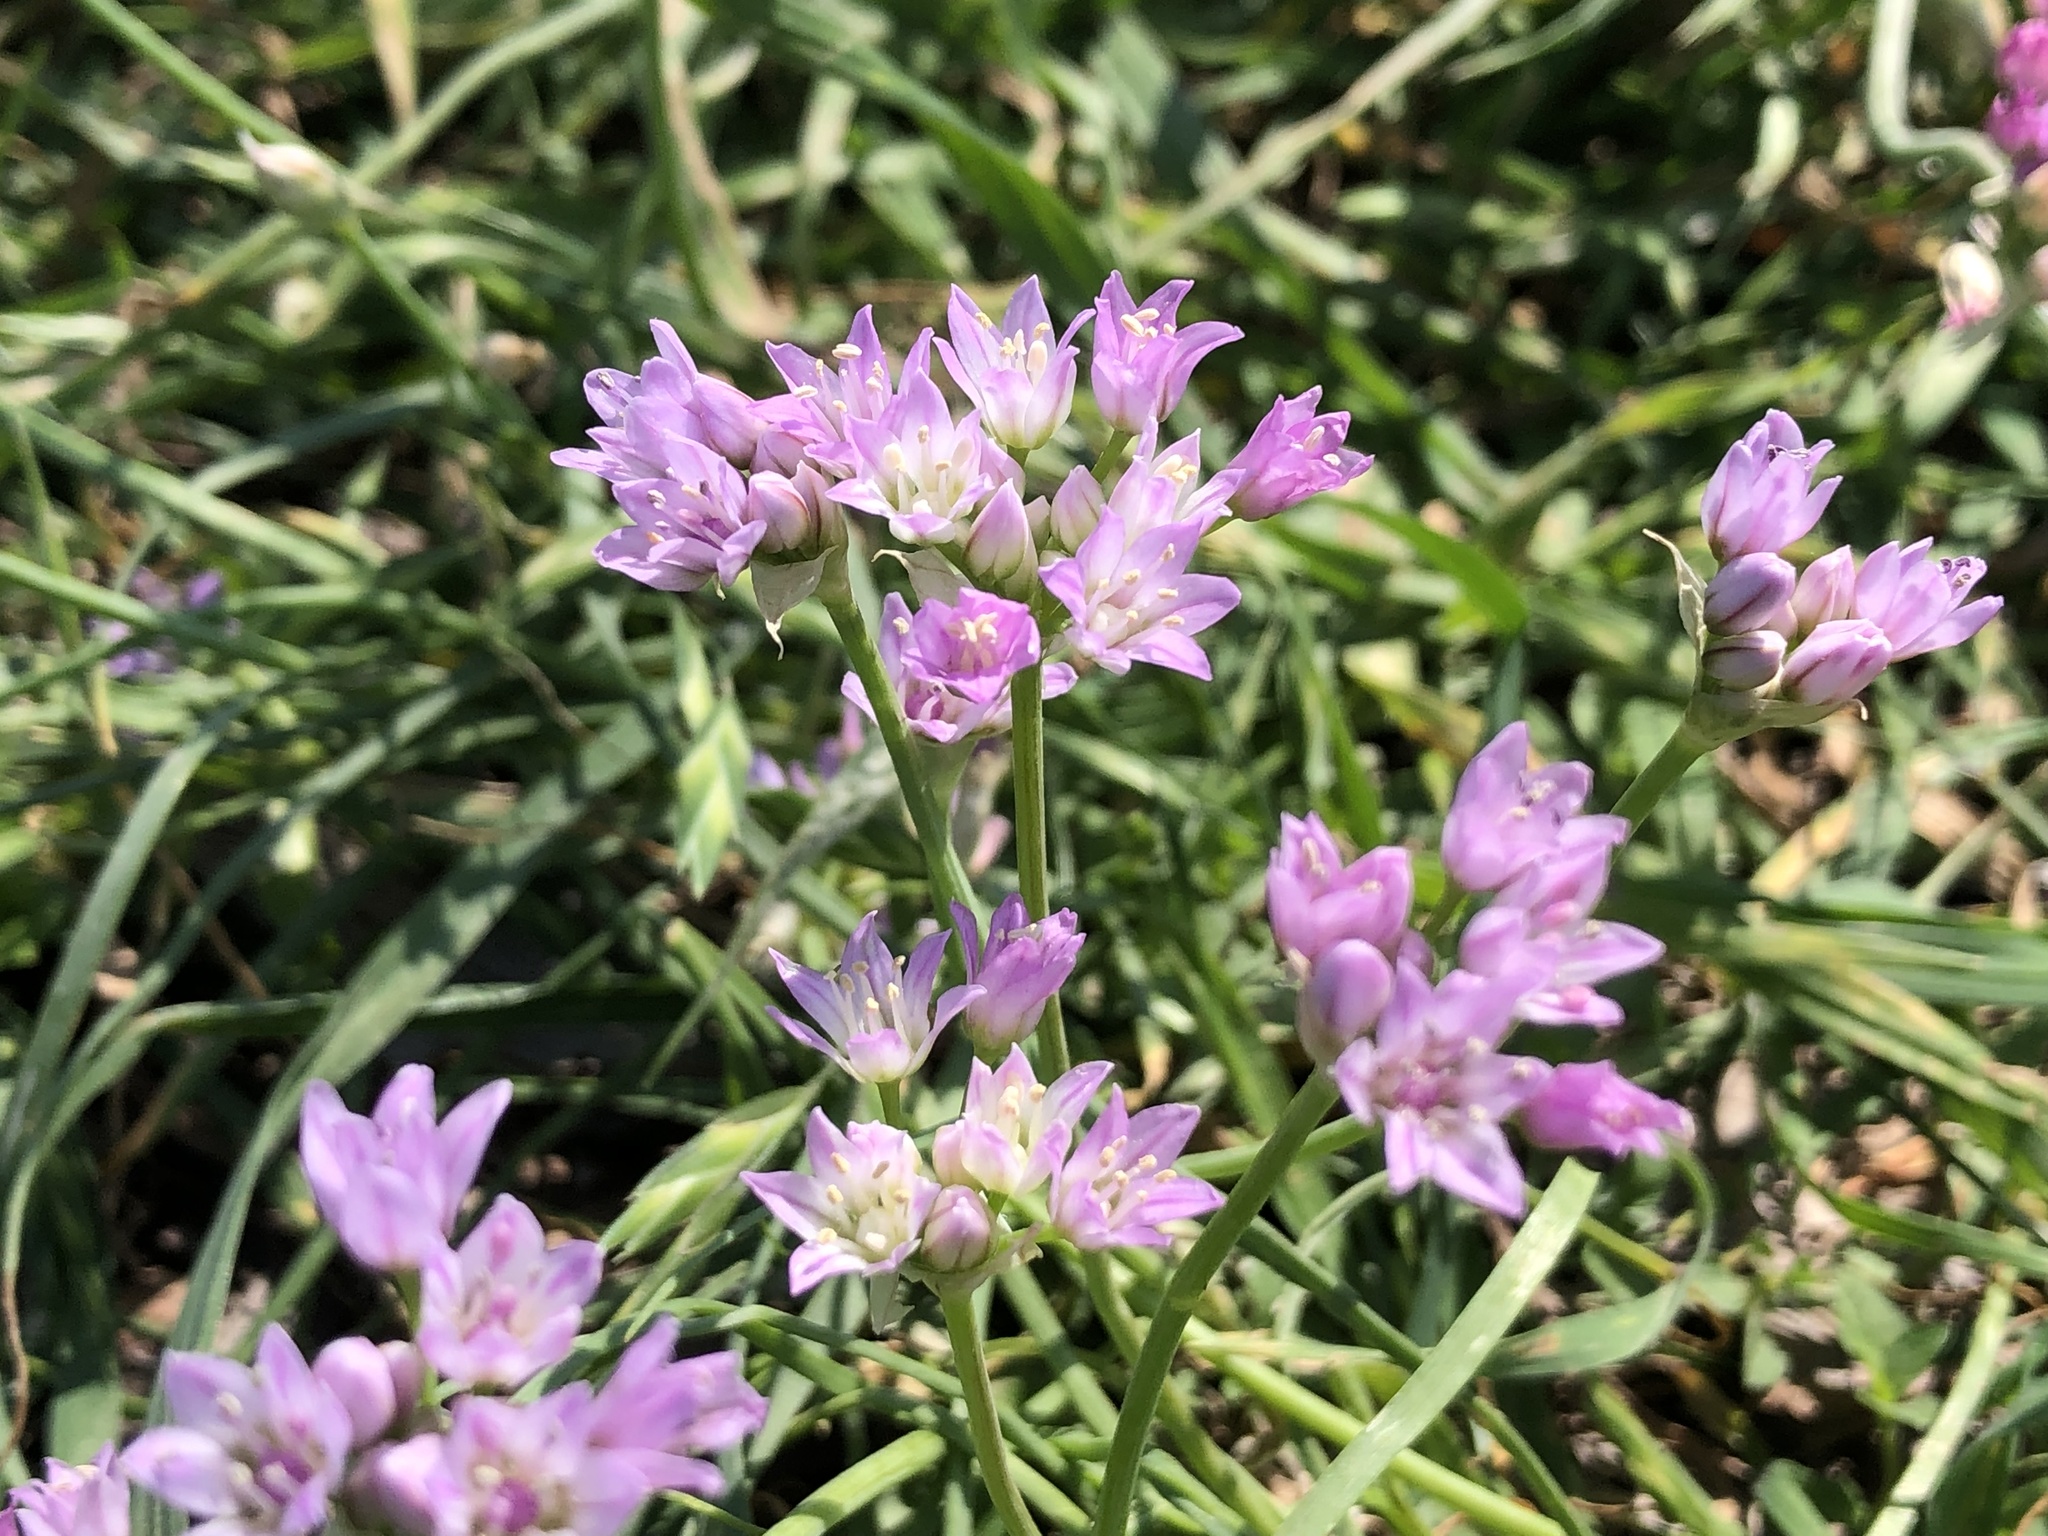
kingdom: Plantae
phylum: Tracheophyta
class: Liliopsida
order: Asparagales
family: Amaryllidaceae
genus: Allium
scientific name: Allium drummondii
